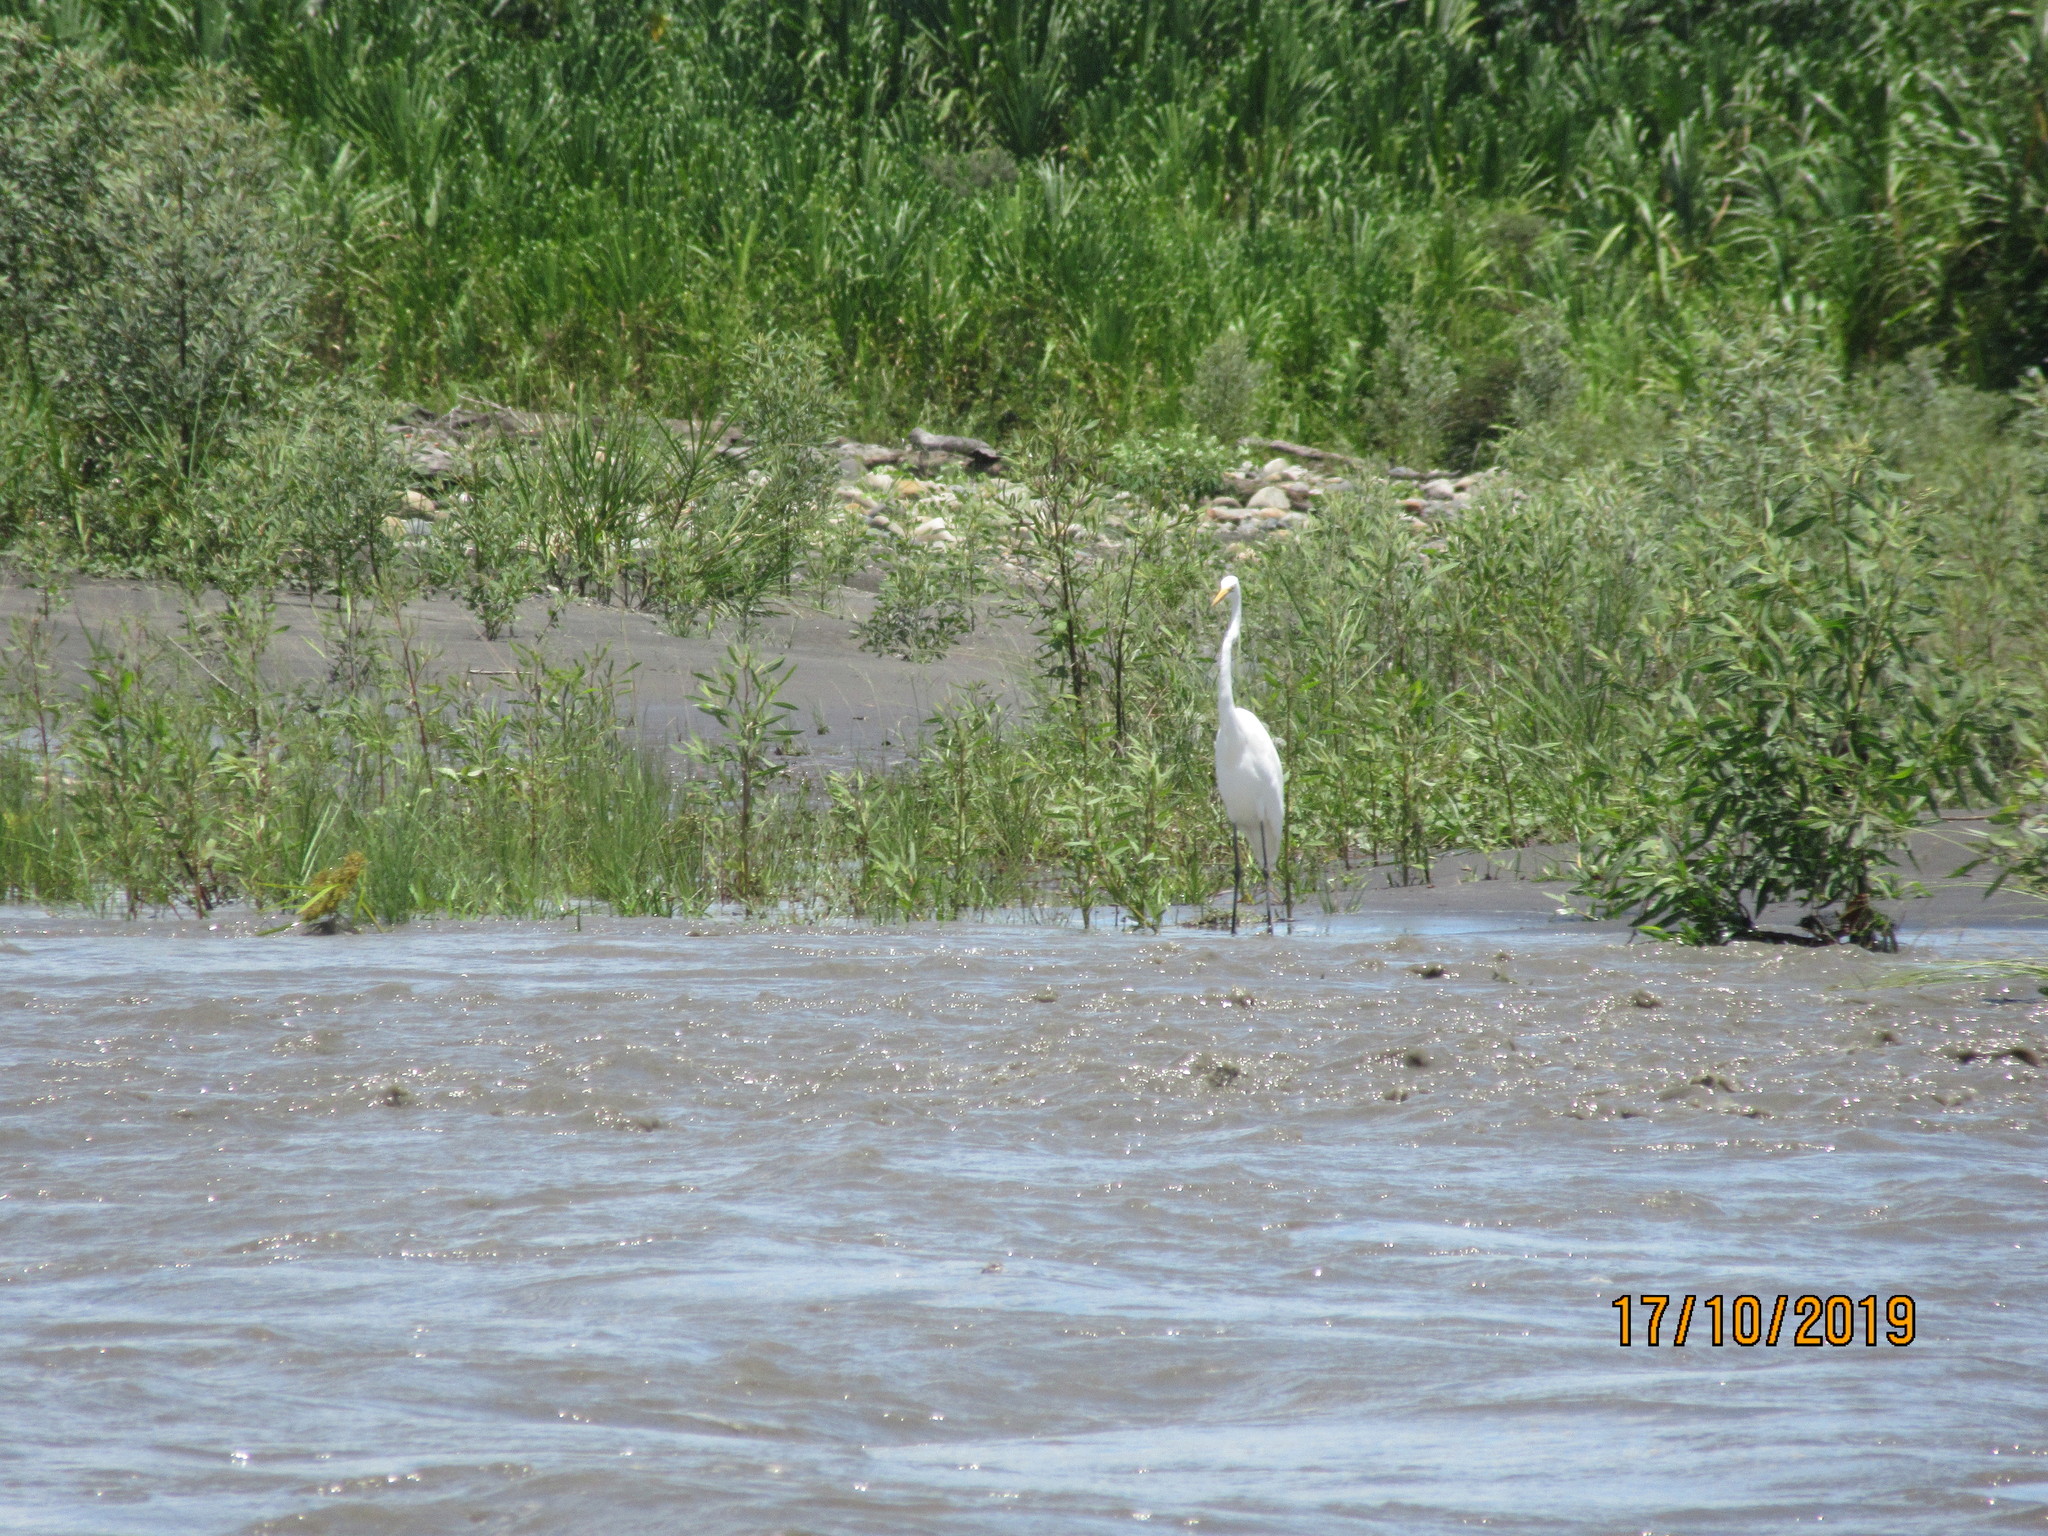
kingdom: Animalia
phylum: Chordata
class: Aves
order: Pelecaniformes
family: Ardeidae
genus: Ardea
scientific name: Ardea alba
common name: Great egret
